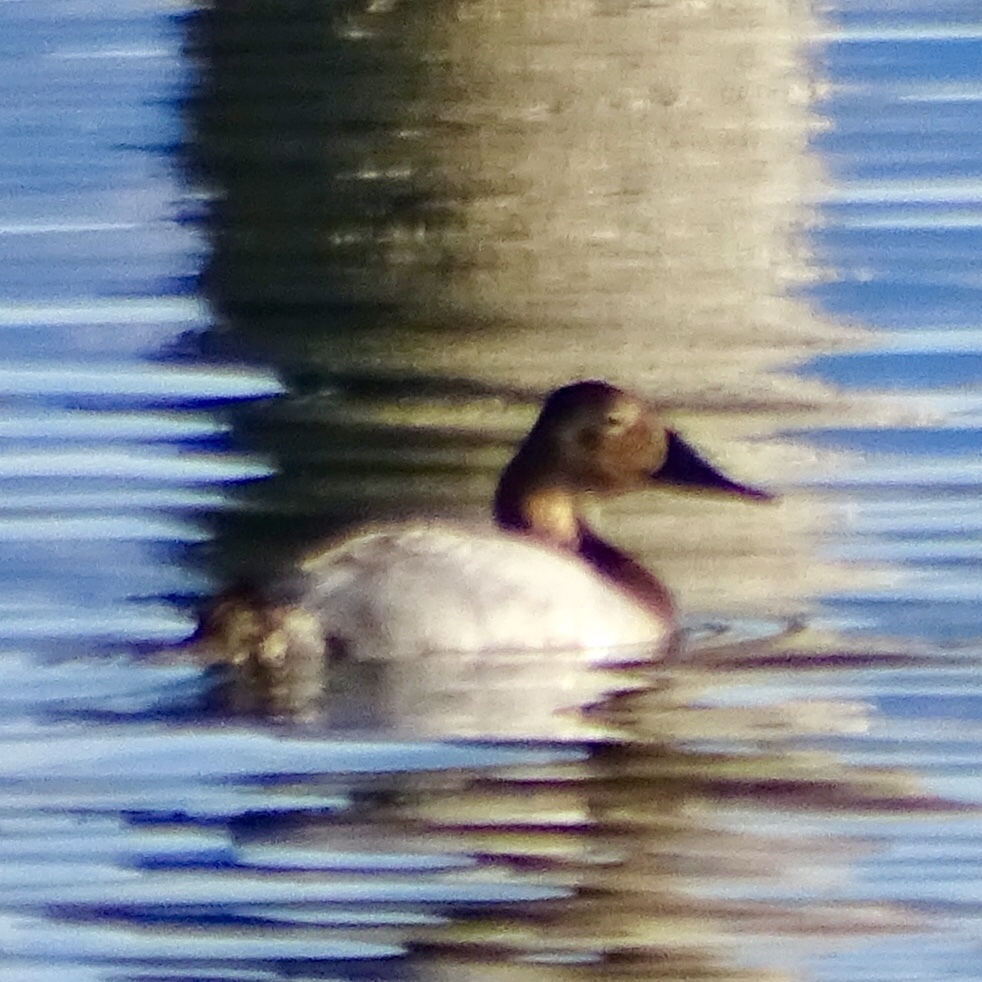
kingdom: Animalia
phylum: Chordata
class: Aves
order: Anseriformes
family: Anatidae
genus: Aythya
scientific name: Aythya valisineria
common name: Canvasback
